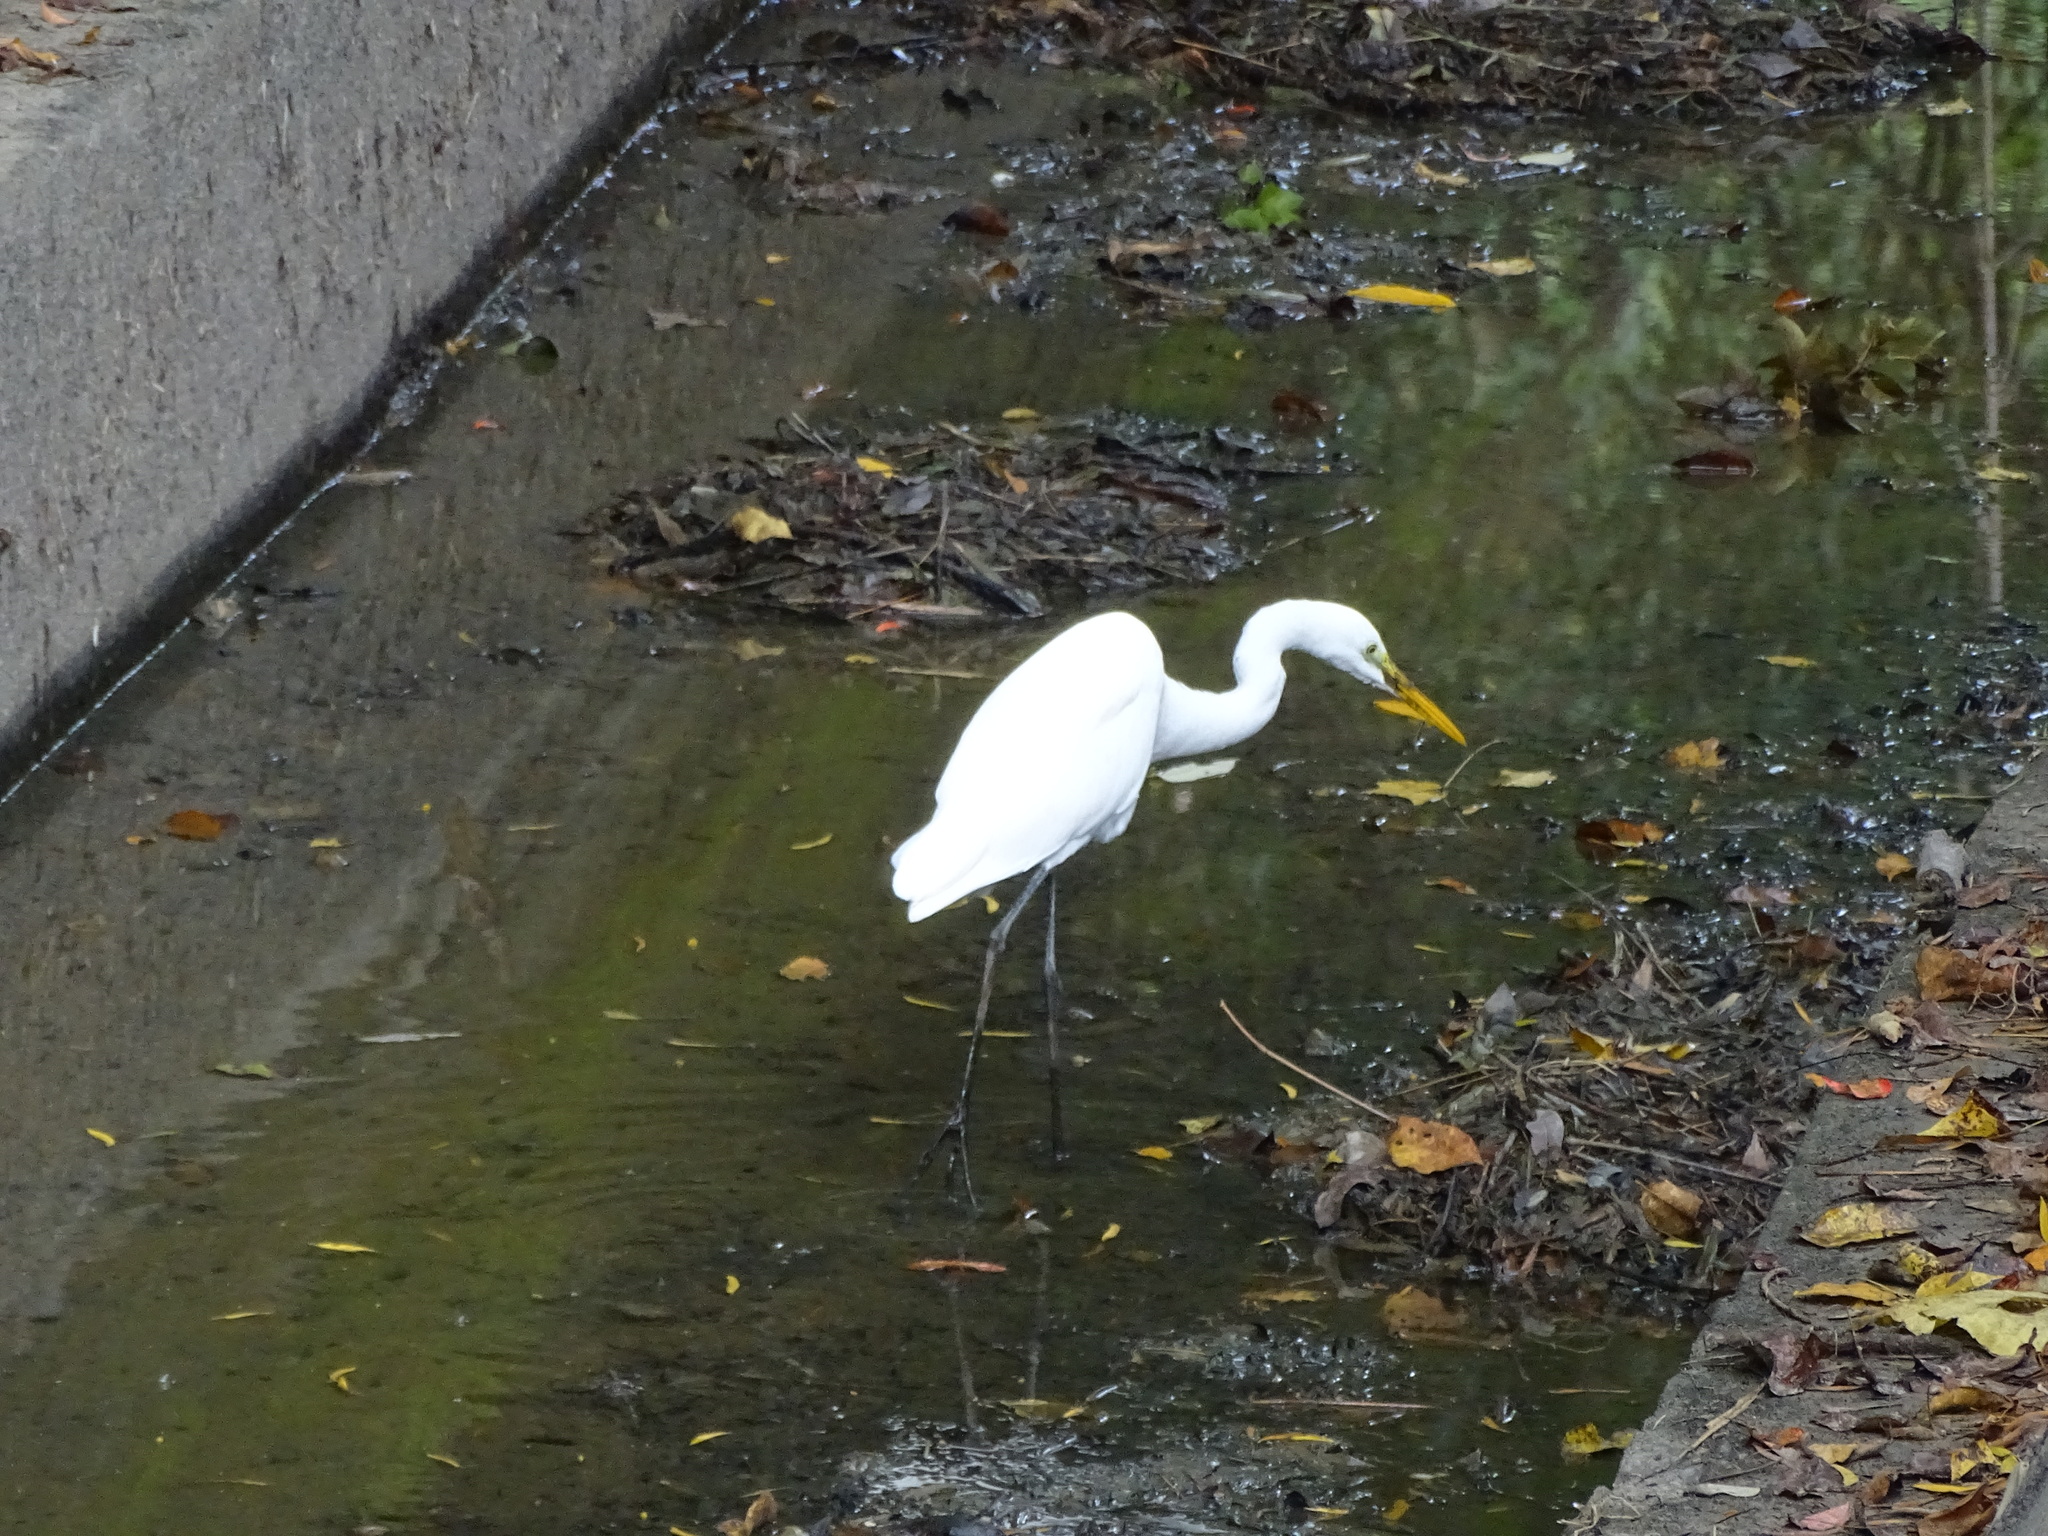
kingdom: Animalia
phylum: Chordata
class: Aves
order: Pelecaniformes
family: Ardeidae
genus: Ardea
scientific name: Ardea alba
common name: Great egret
